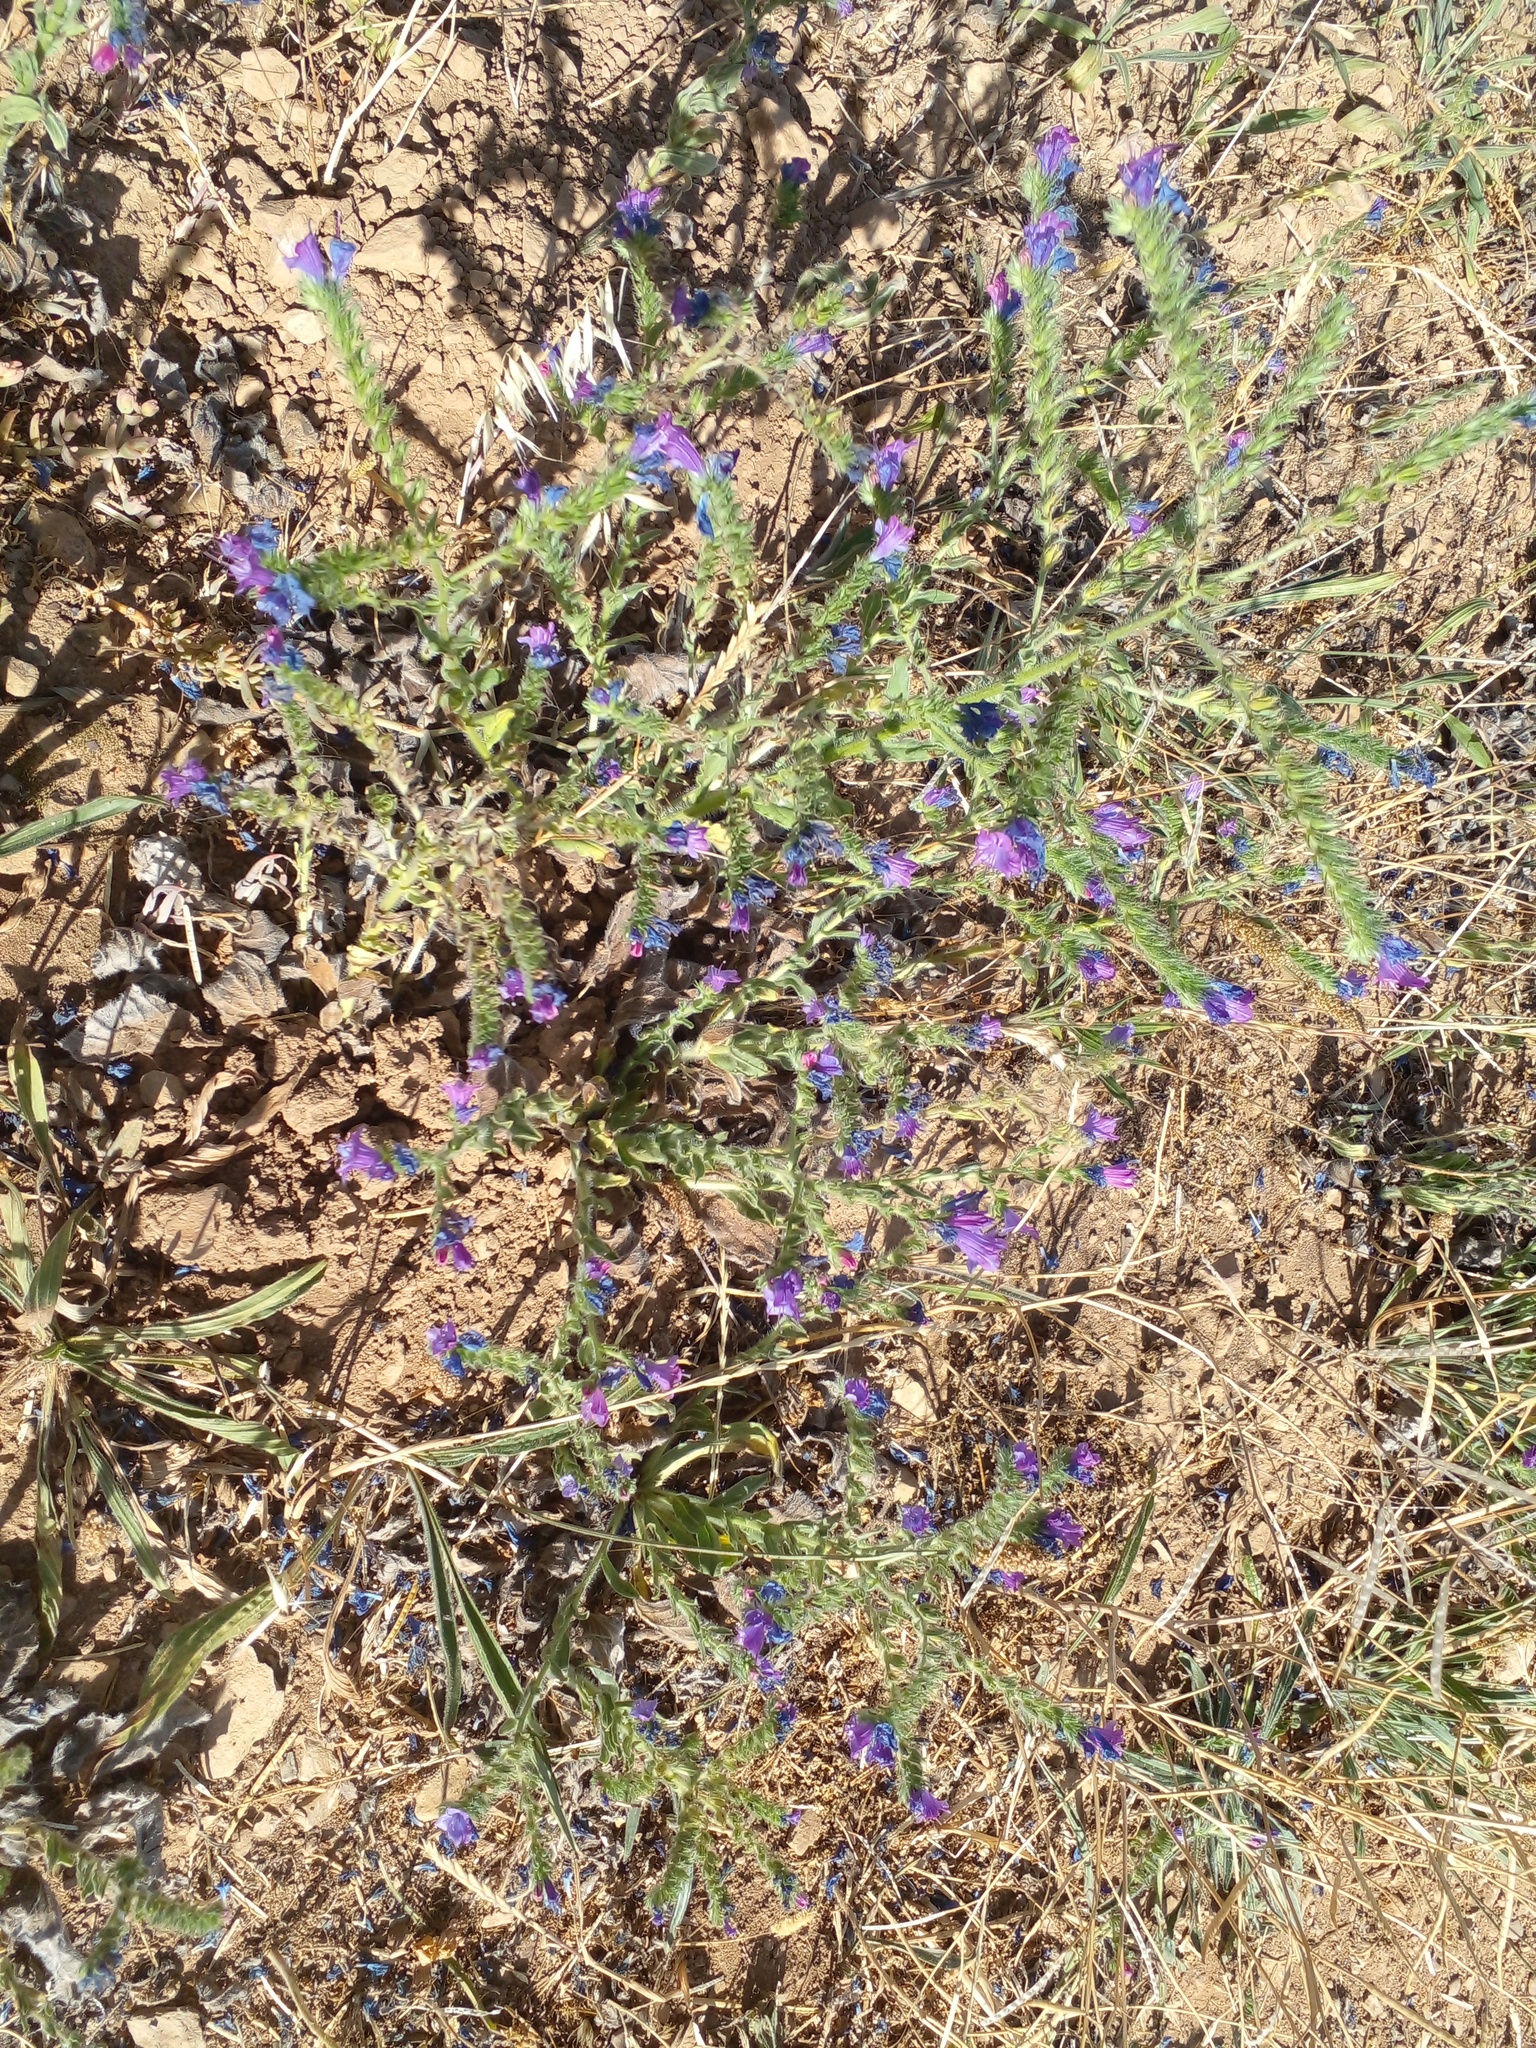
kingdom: Plantae
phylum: Tracheophyta
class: Magnoliopsida
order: Boraginales
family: Boraginaceae
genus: Echium
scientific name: Echium plantagineum
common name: Purple viper's-bugloss
